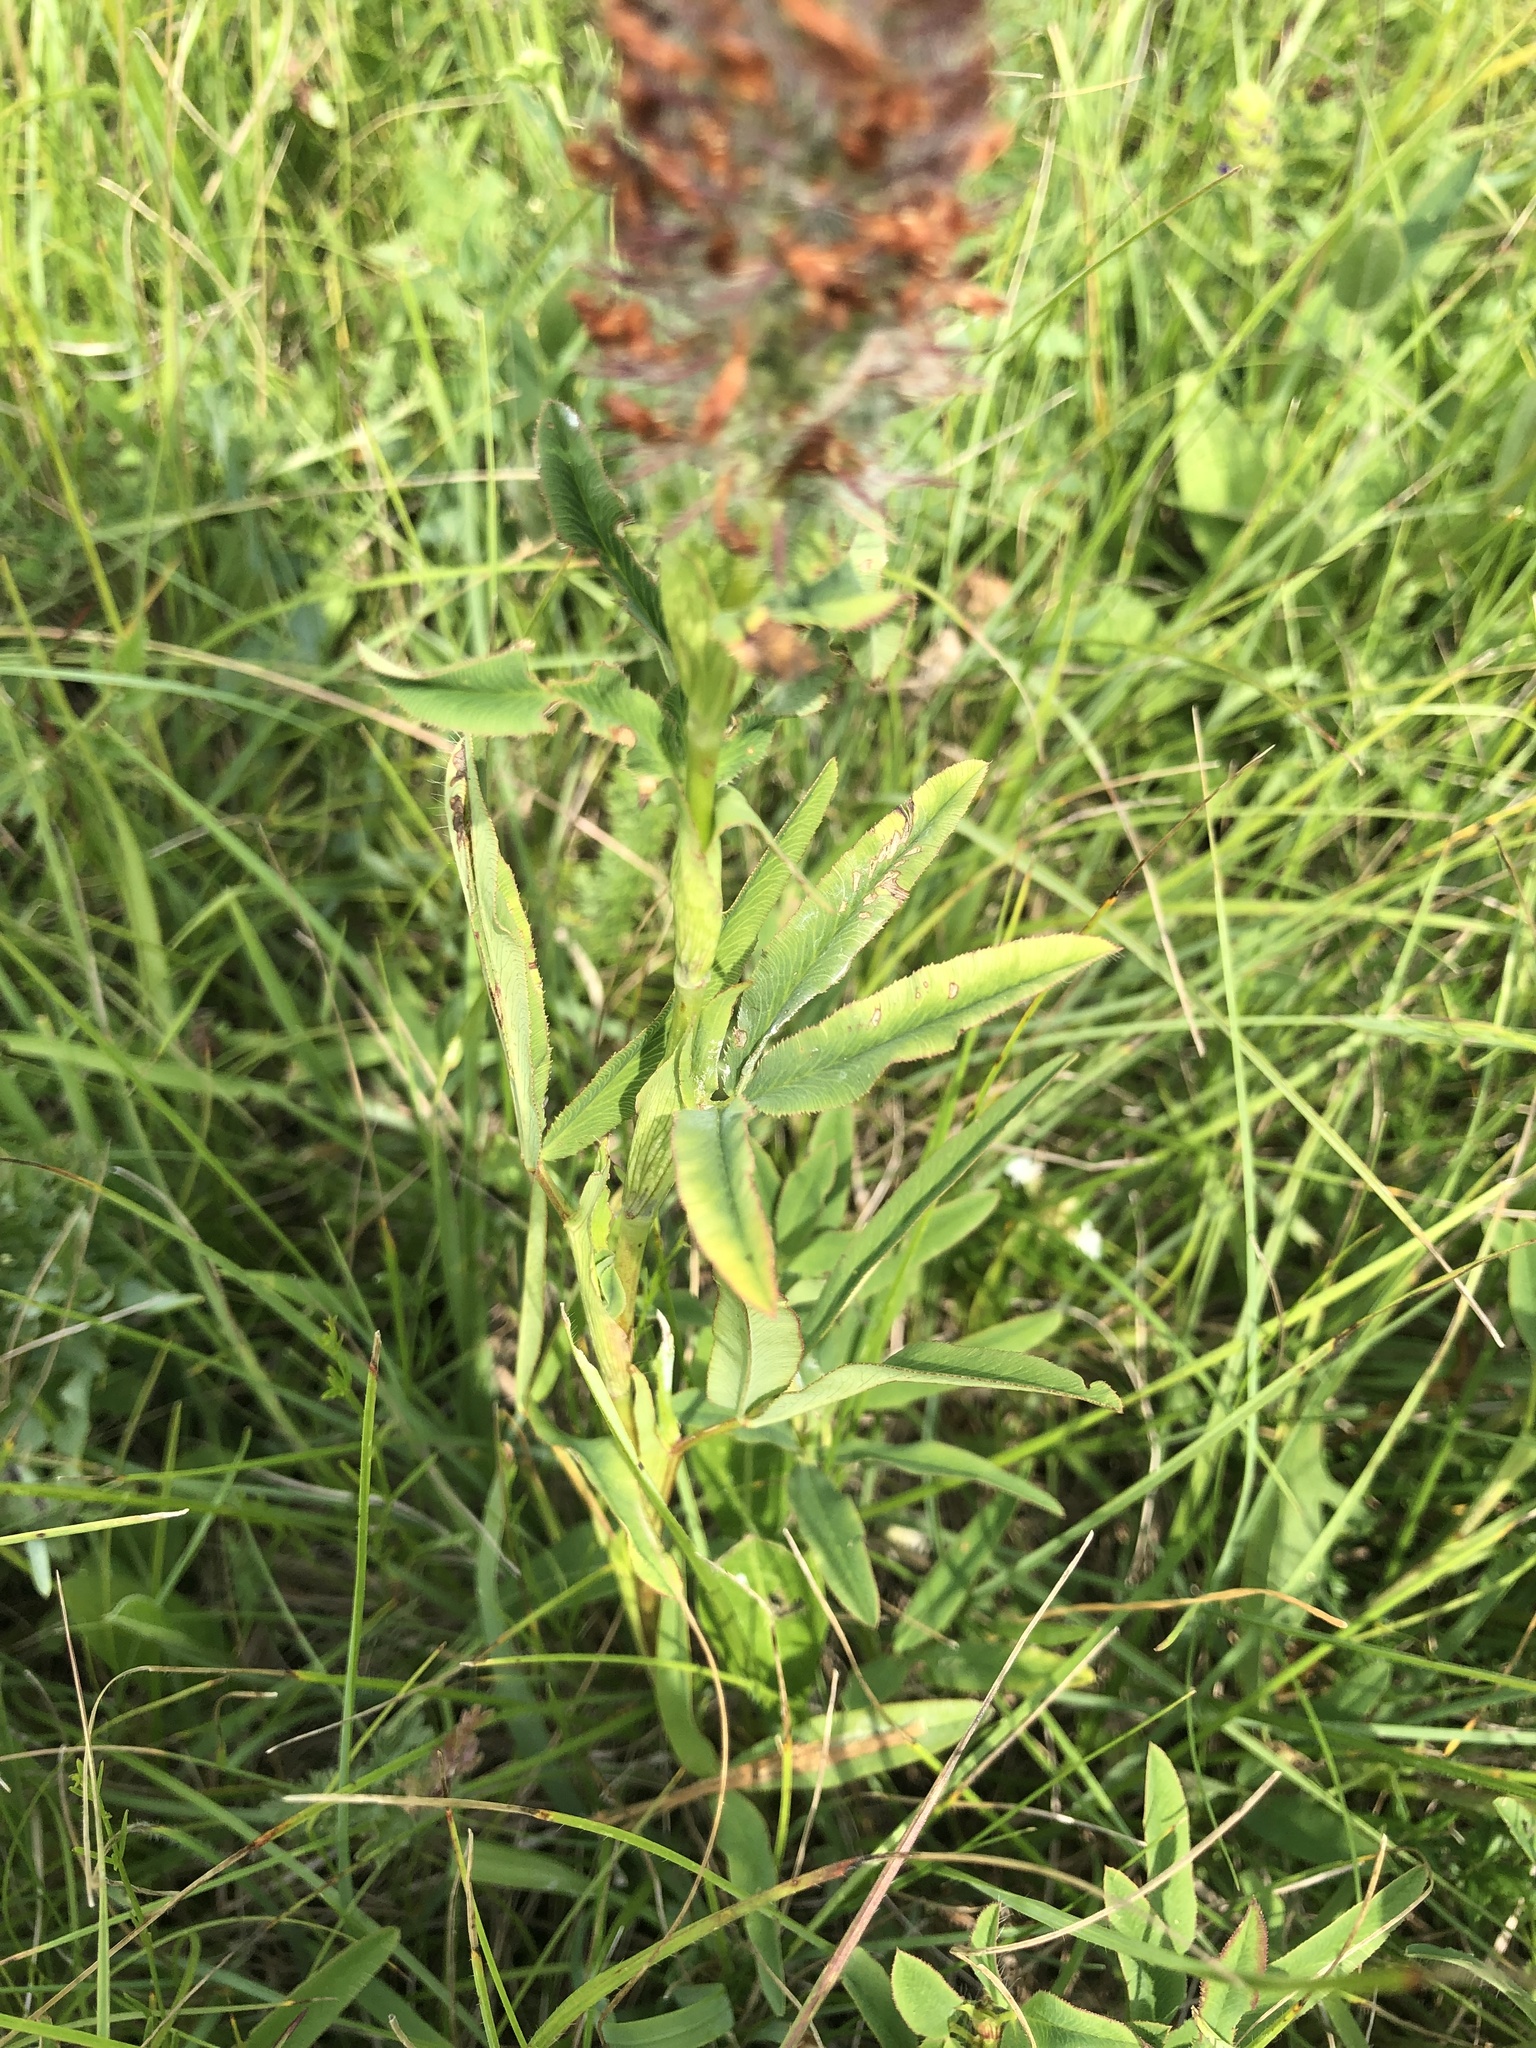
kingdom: Plantae
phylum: Tracheophyta
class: Magnoliopsida
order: Fabales
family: Fabaceae
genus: Trifolium
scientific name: Trifolium rubens
